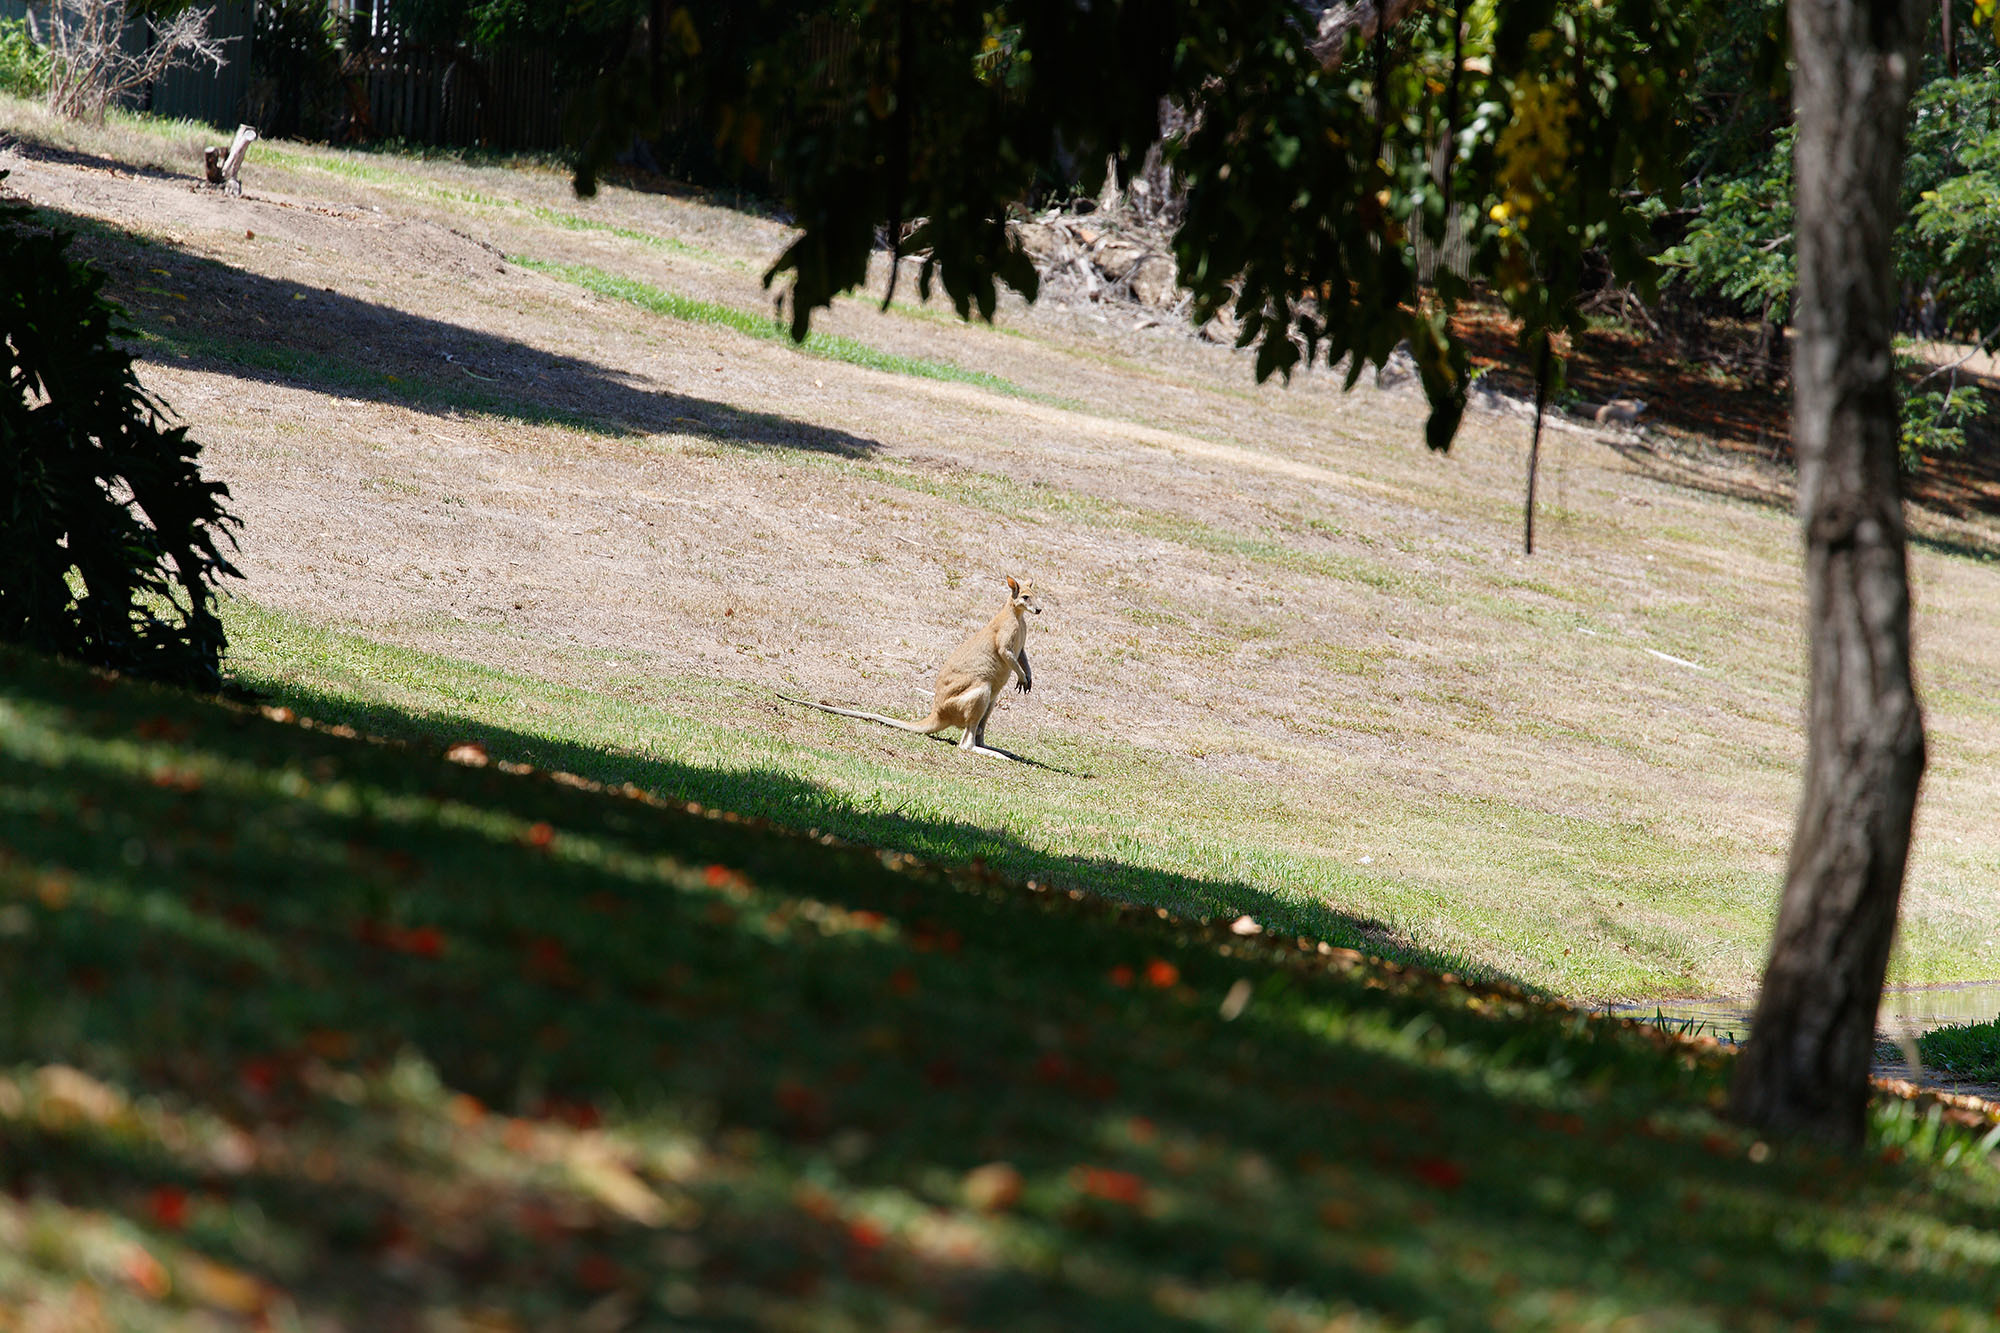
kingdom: Animalia
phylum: Chordata
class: Mammalia
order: Diprotodontia
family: Macropodidae
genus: Macropus
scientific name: Macropus agilis
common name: Agile wallaby
